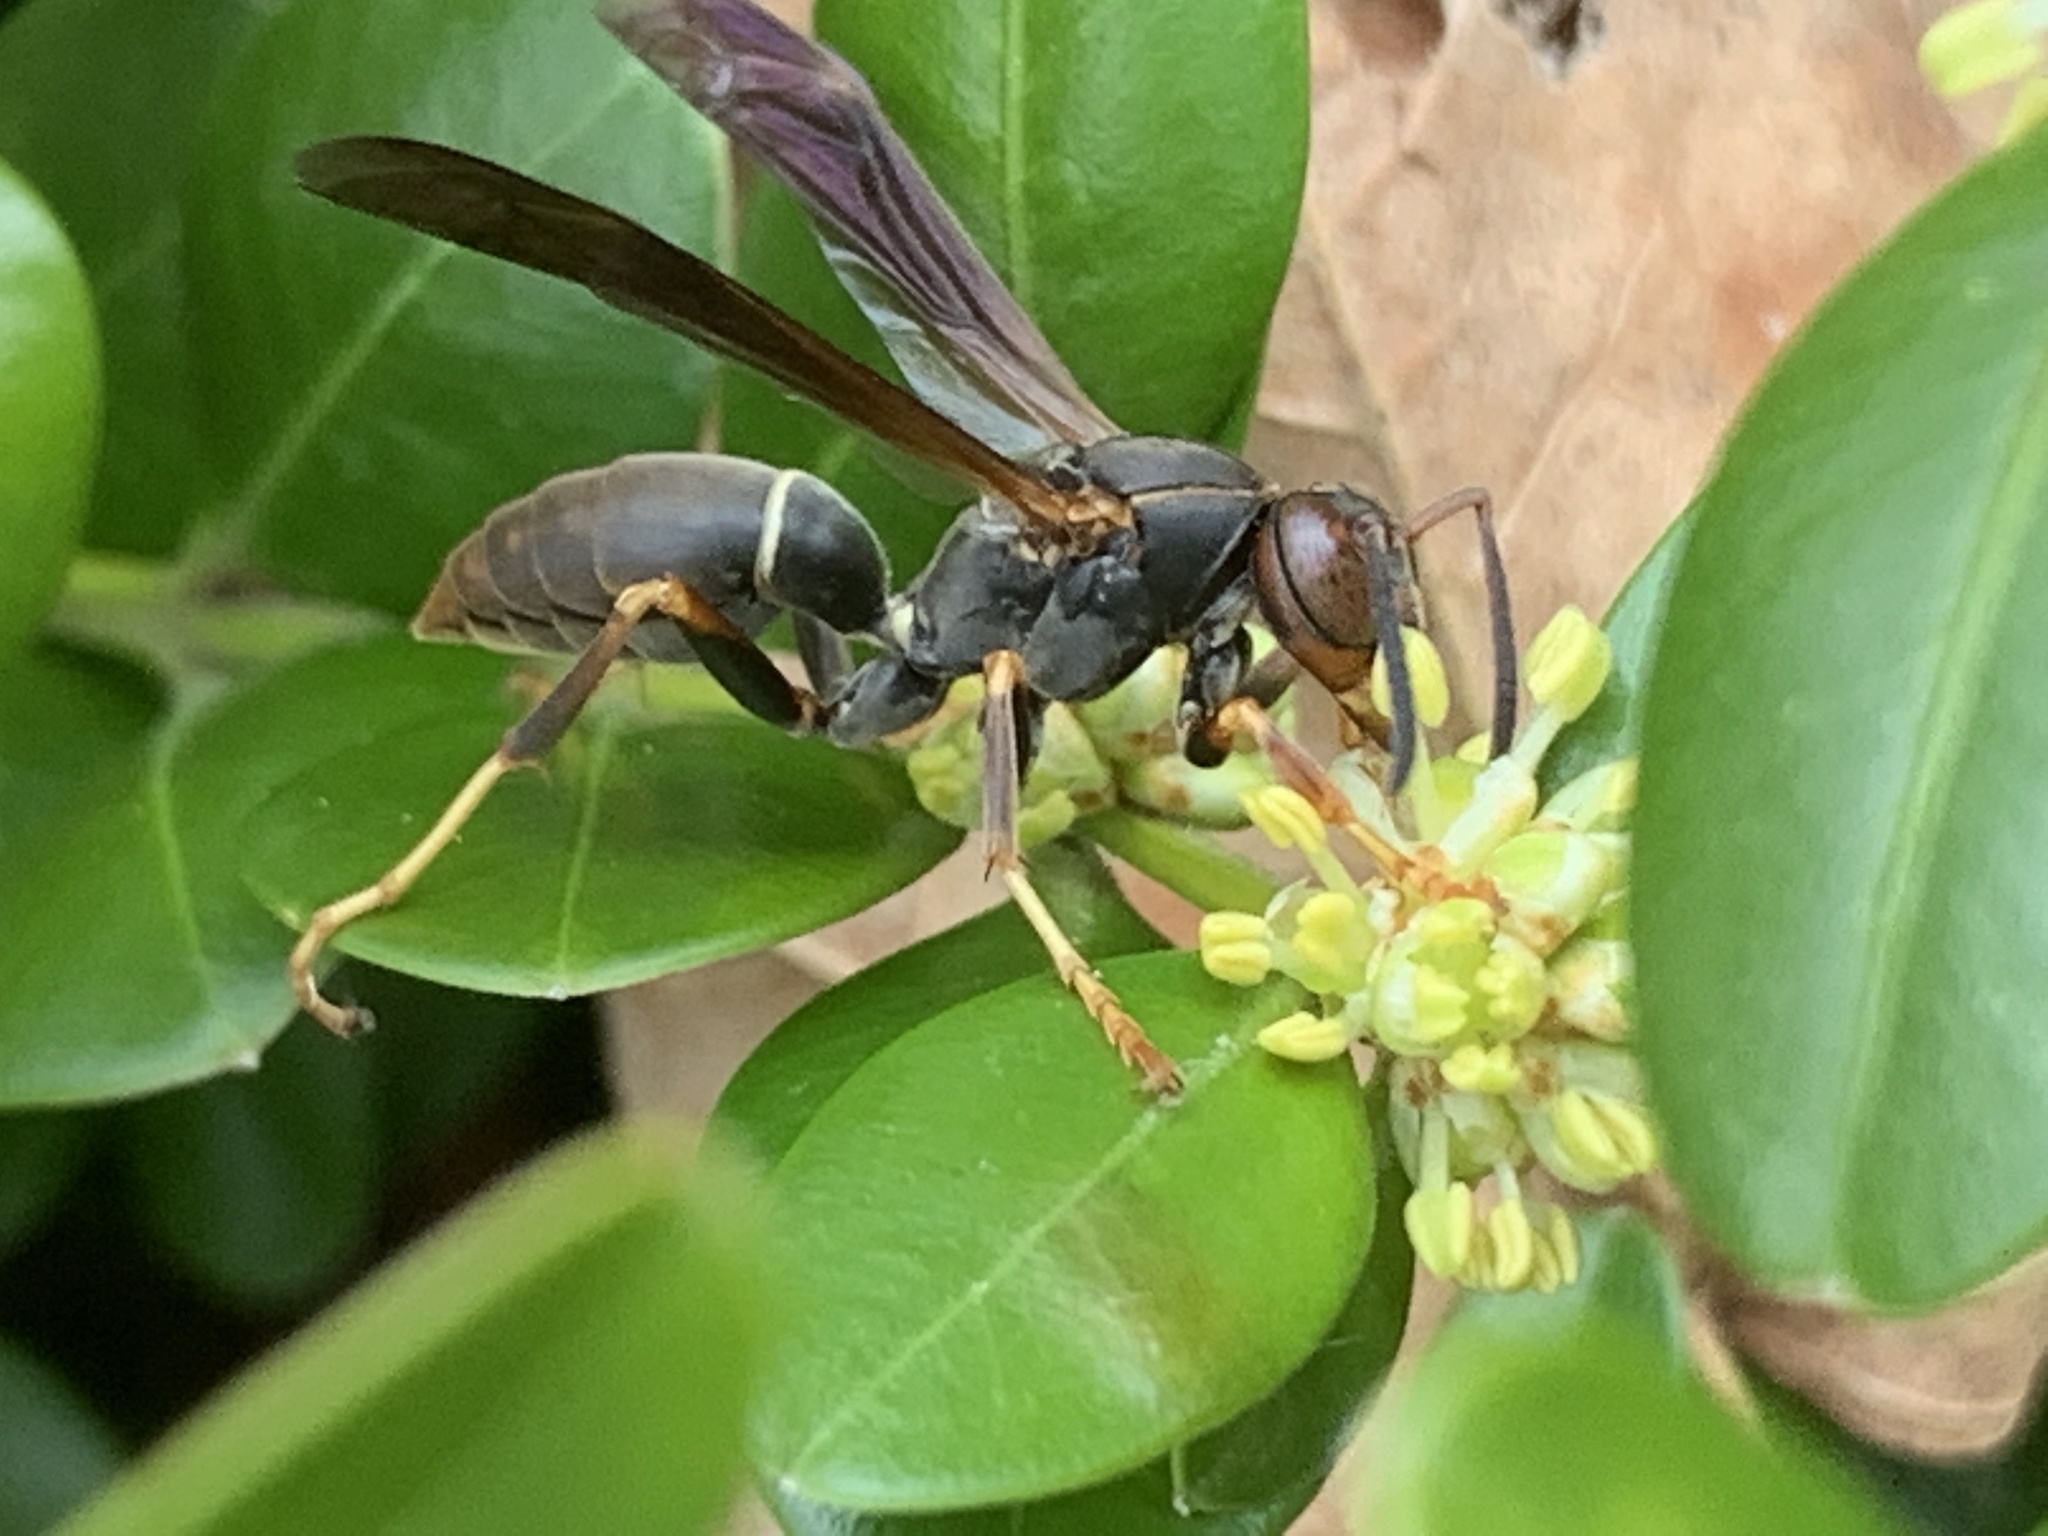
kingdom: Animalia
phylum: Arthropoda
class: Insecta
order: Hymenoptera
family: Eumenidae
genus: Polistes
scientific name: Polistes fuscatus
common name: Dark paper wasp
